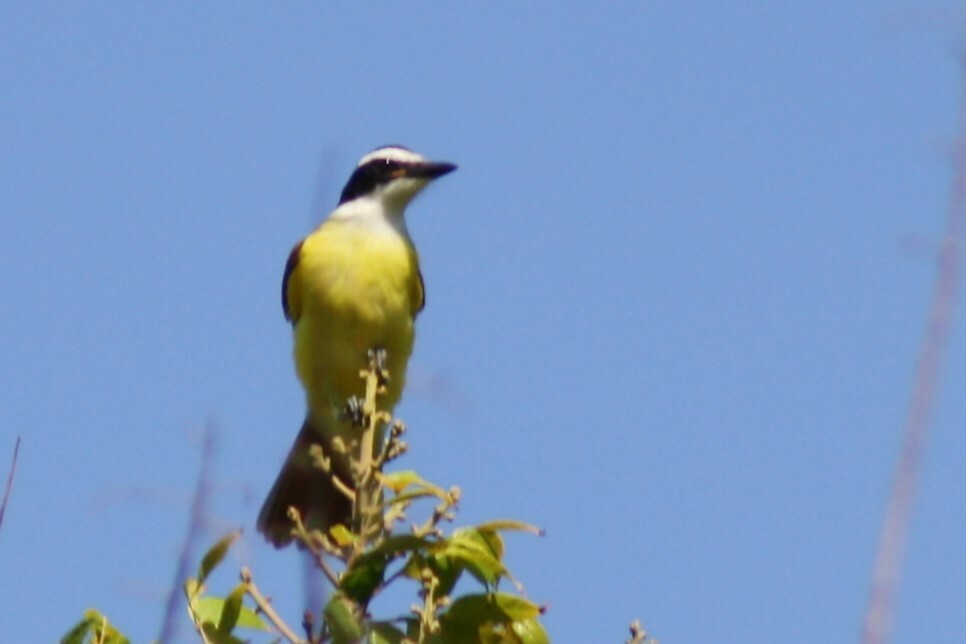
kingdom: Animalia
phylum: Chordata
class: Aves
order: Passeriformes
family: Tyrannidae
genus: Pitangus
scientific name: Pitangus sulphuratus
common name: Great kiskadee
